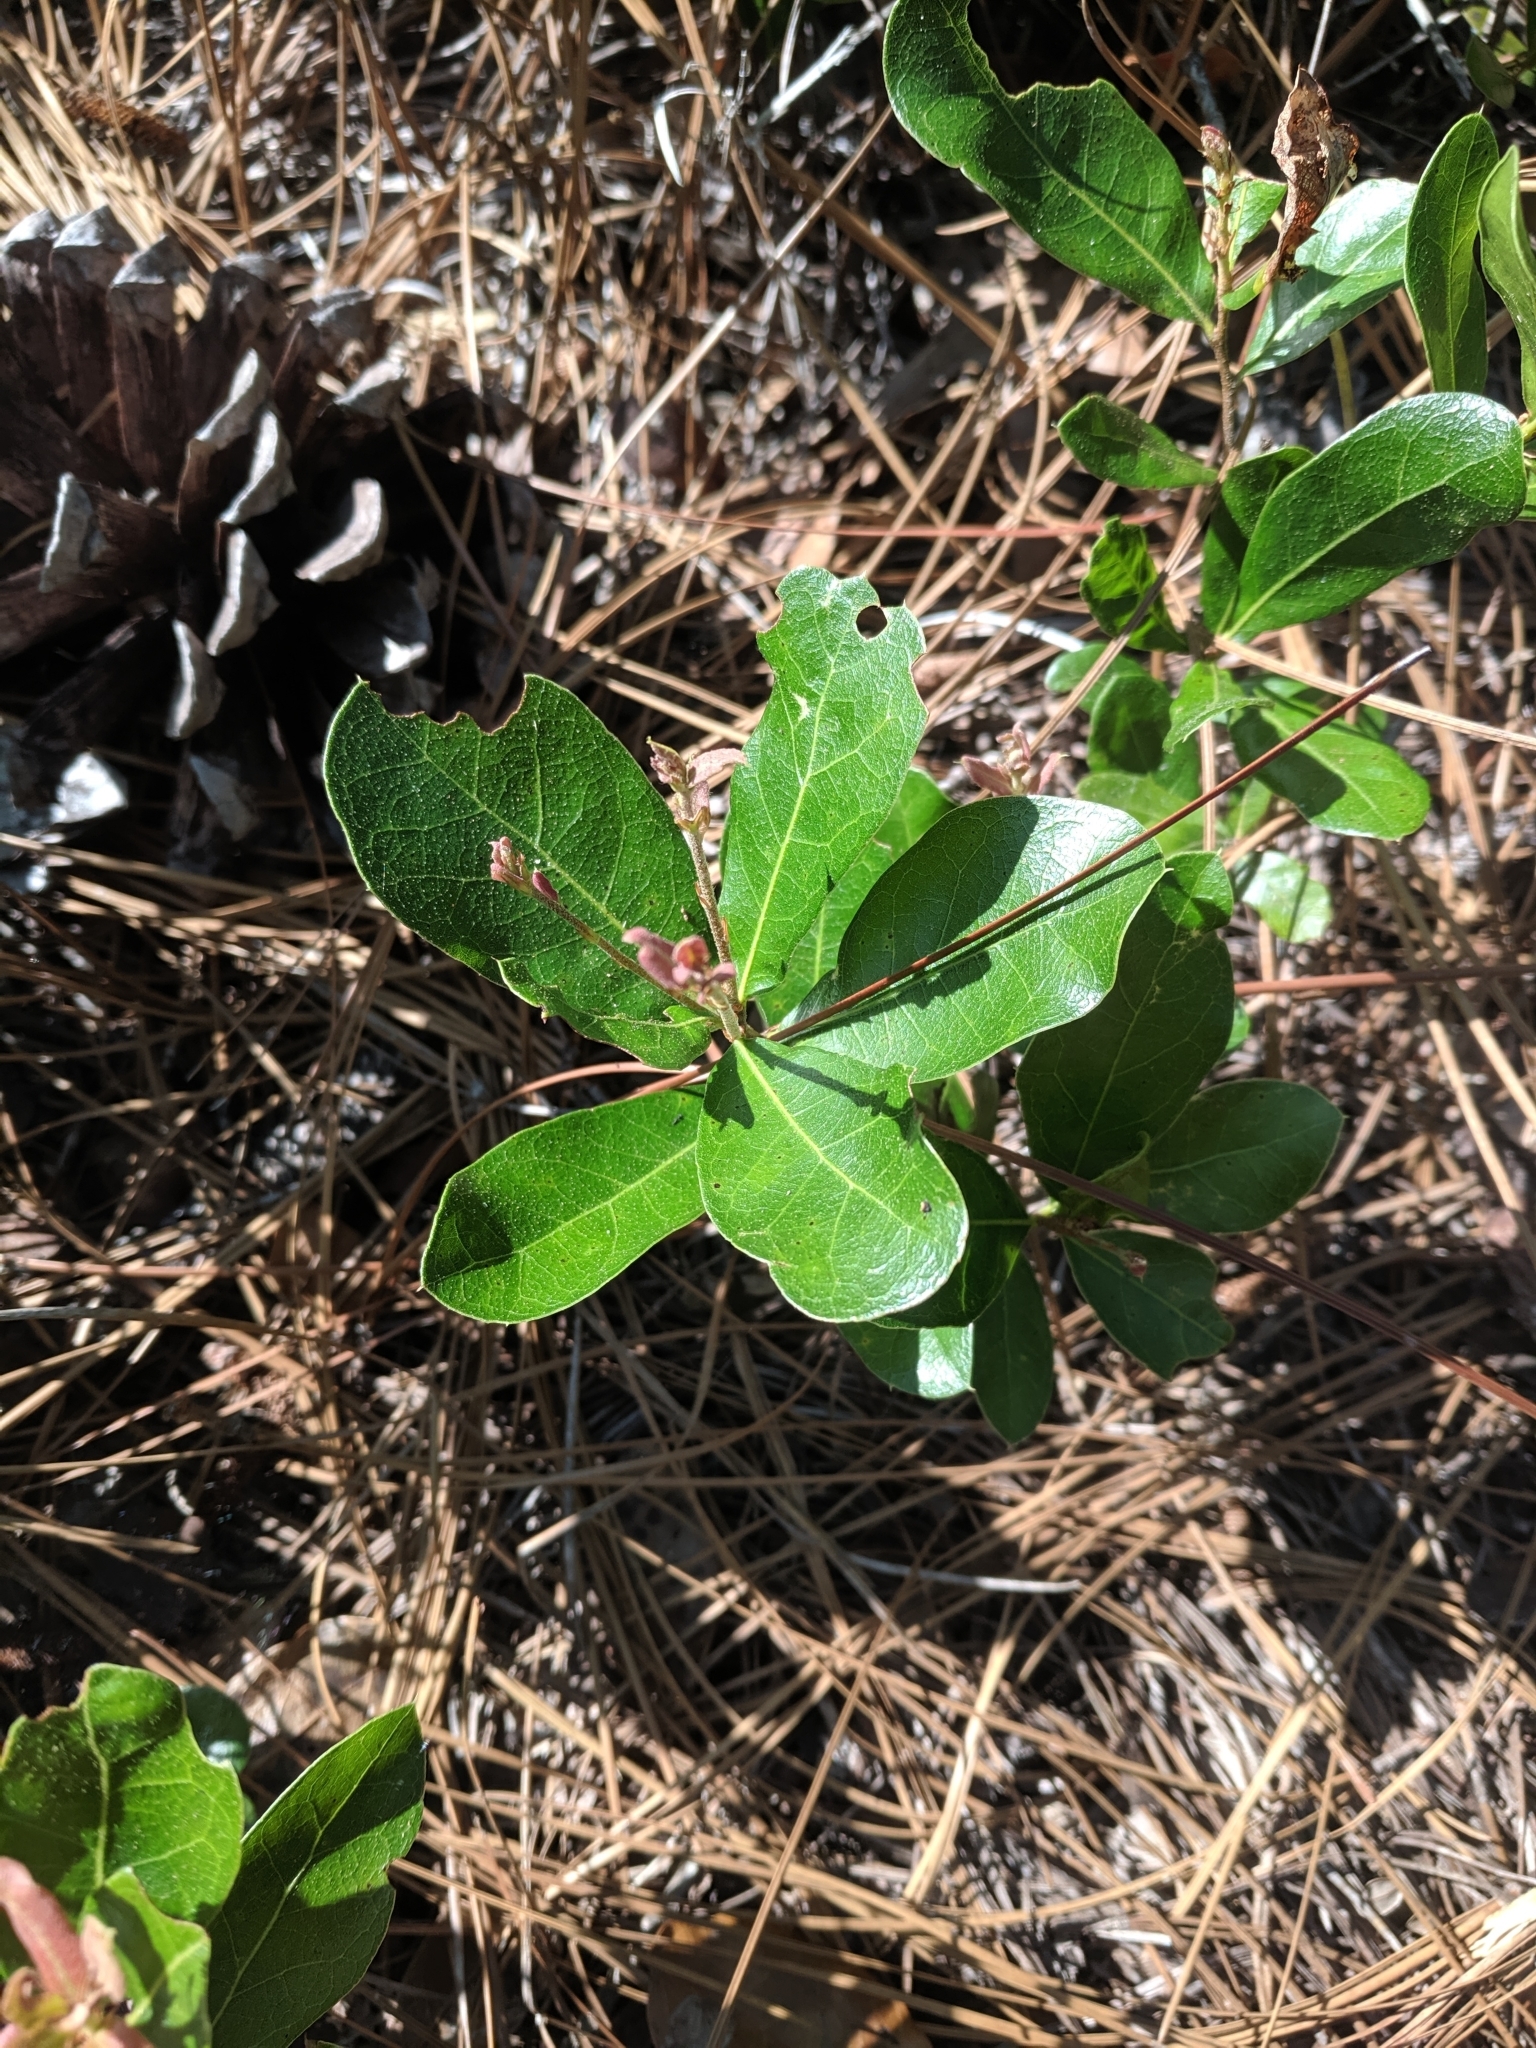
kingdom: Plantae
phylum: Tracheophyta
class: Magnoliopsida
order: Fagales
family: Fagaceae
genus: Quercus
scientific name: Quercus minima
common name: Dwarf live oak
